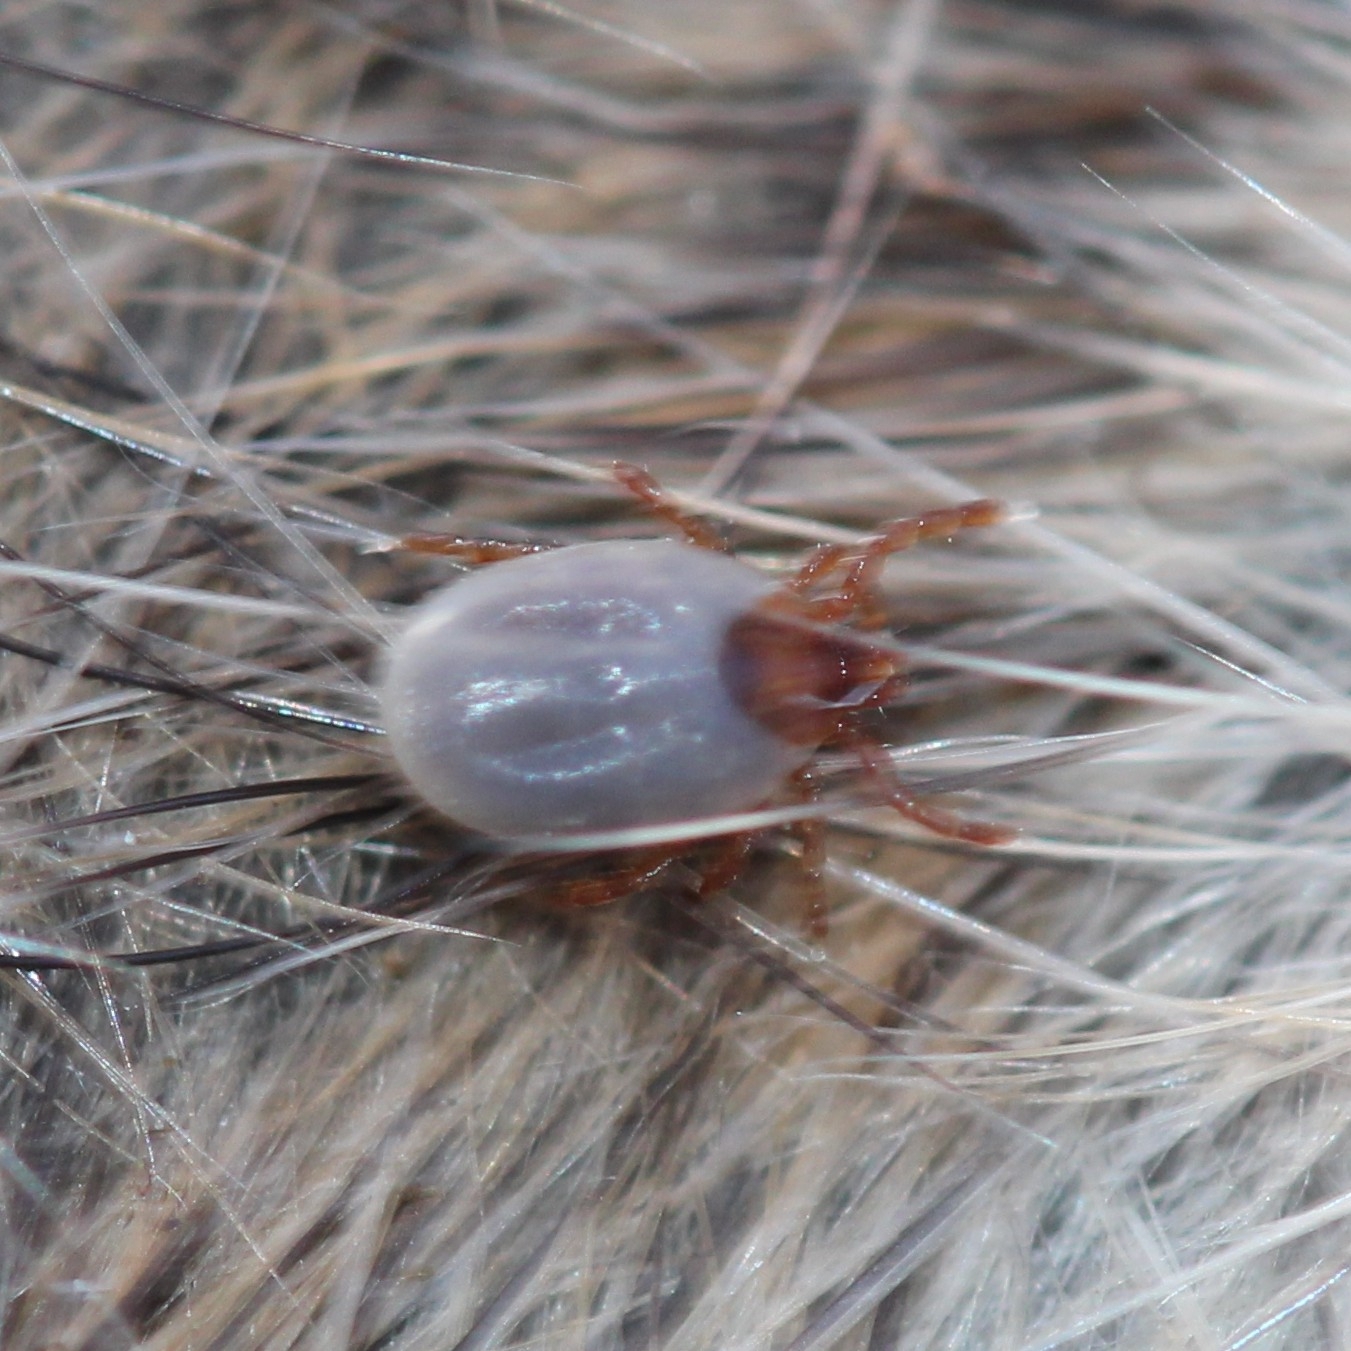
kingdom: Animalia
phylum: Arthropoda
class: Arachnida
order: Ixodida
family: Ixodidae
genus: Ixodes
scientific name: Ixodes cookei
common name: American castor bean tick
